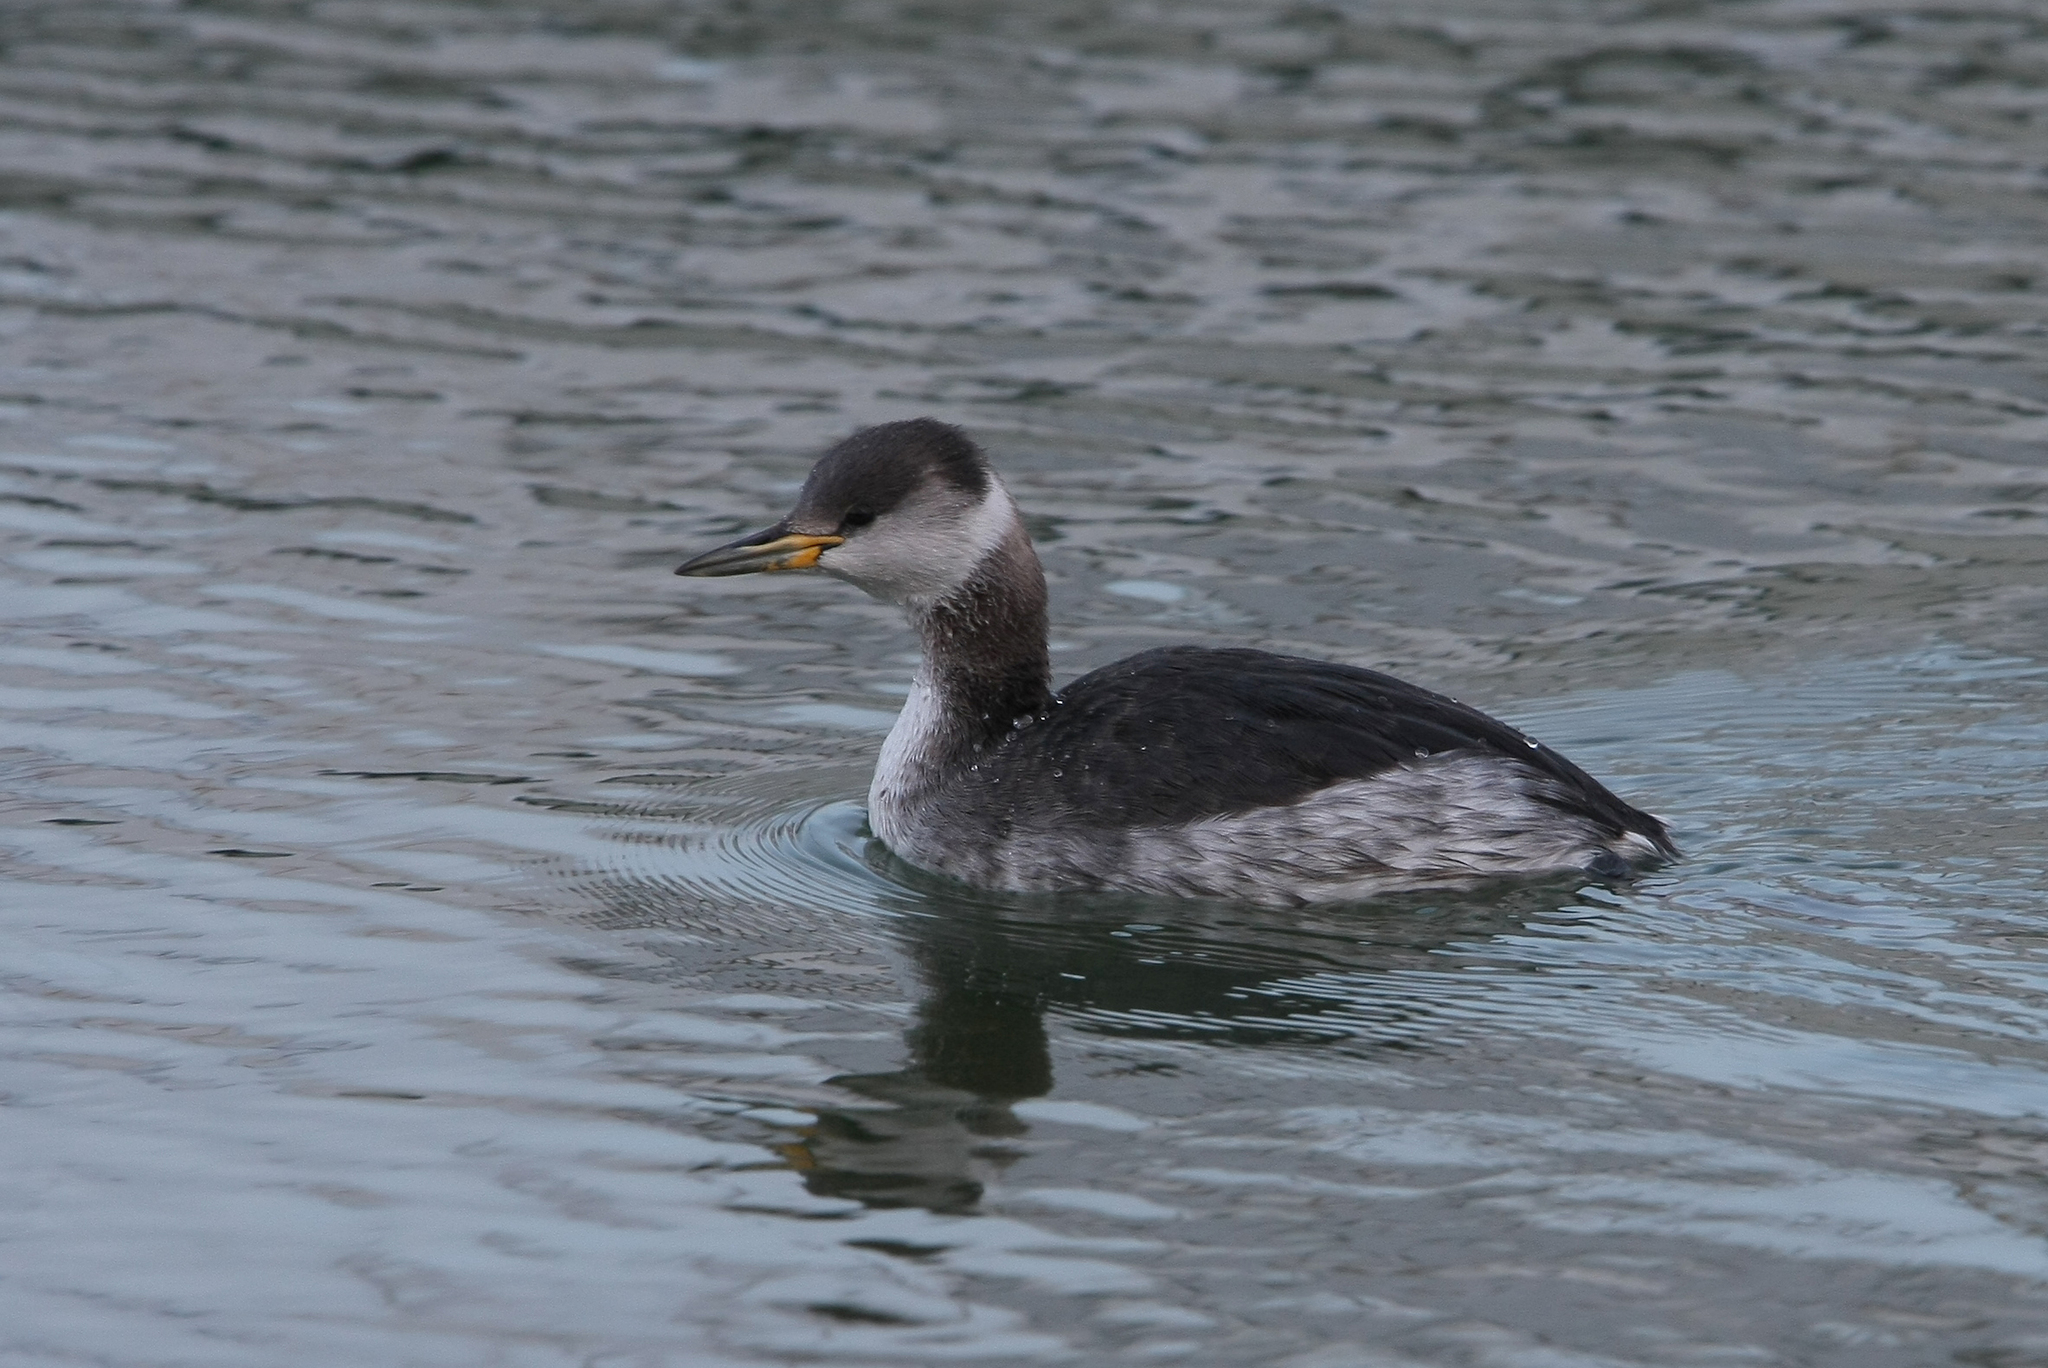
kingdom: Animalia
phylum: Chordata
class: Aves
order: Podicipediformes
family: Podicipedidae
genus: Podiceps
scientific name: Podiceps grisegena
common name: Red-necked grebe
